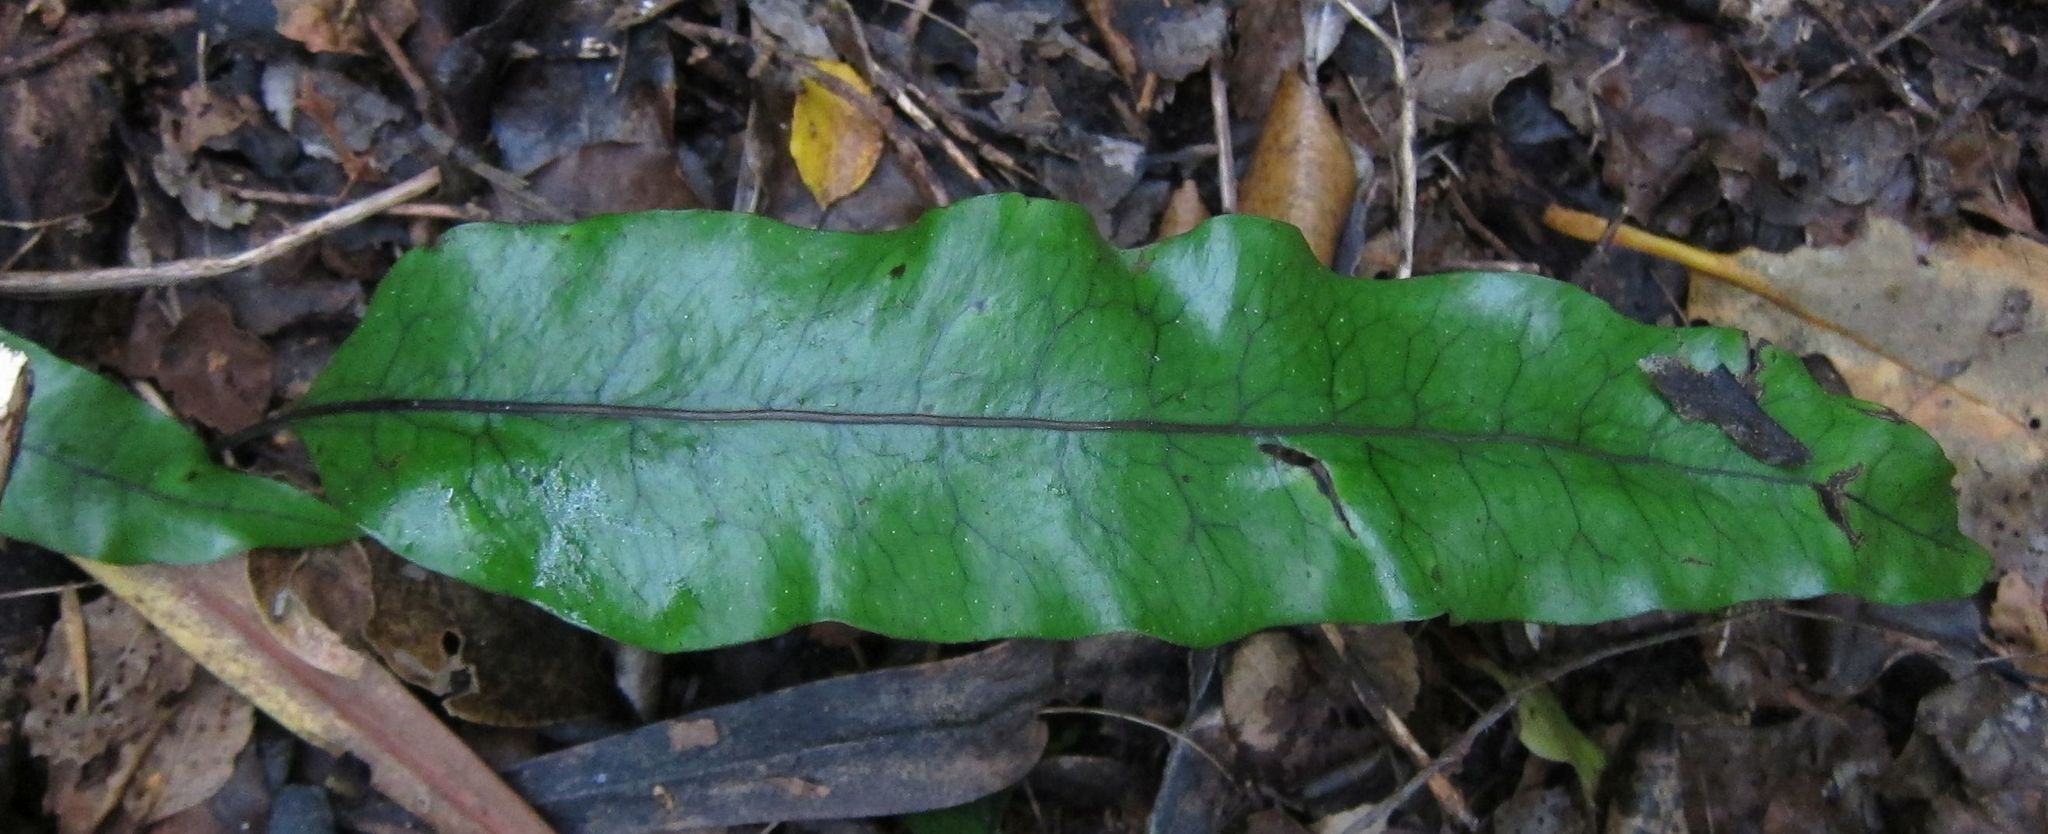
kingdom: Plantae
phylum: Tracheophyta
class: Polypodiopsida
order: Polypodiales
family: Polypodiaceae
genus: Lecanopteris
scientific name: Lecanopteris pustulata
